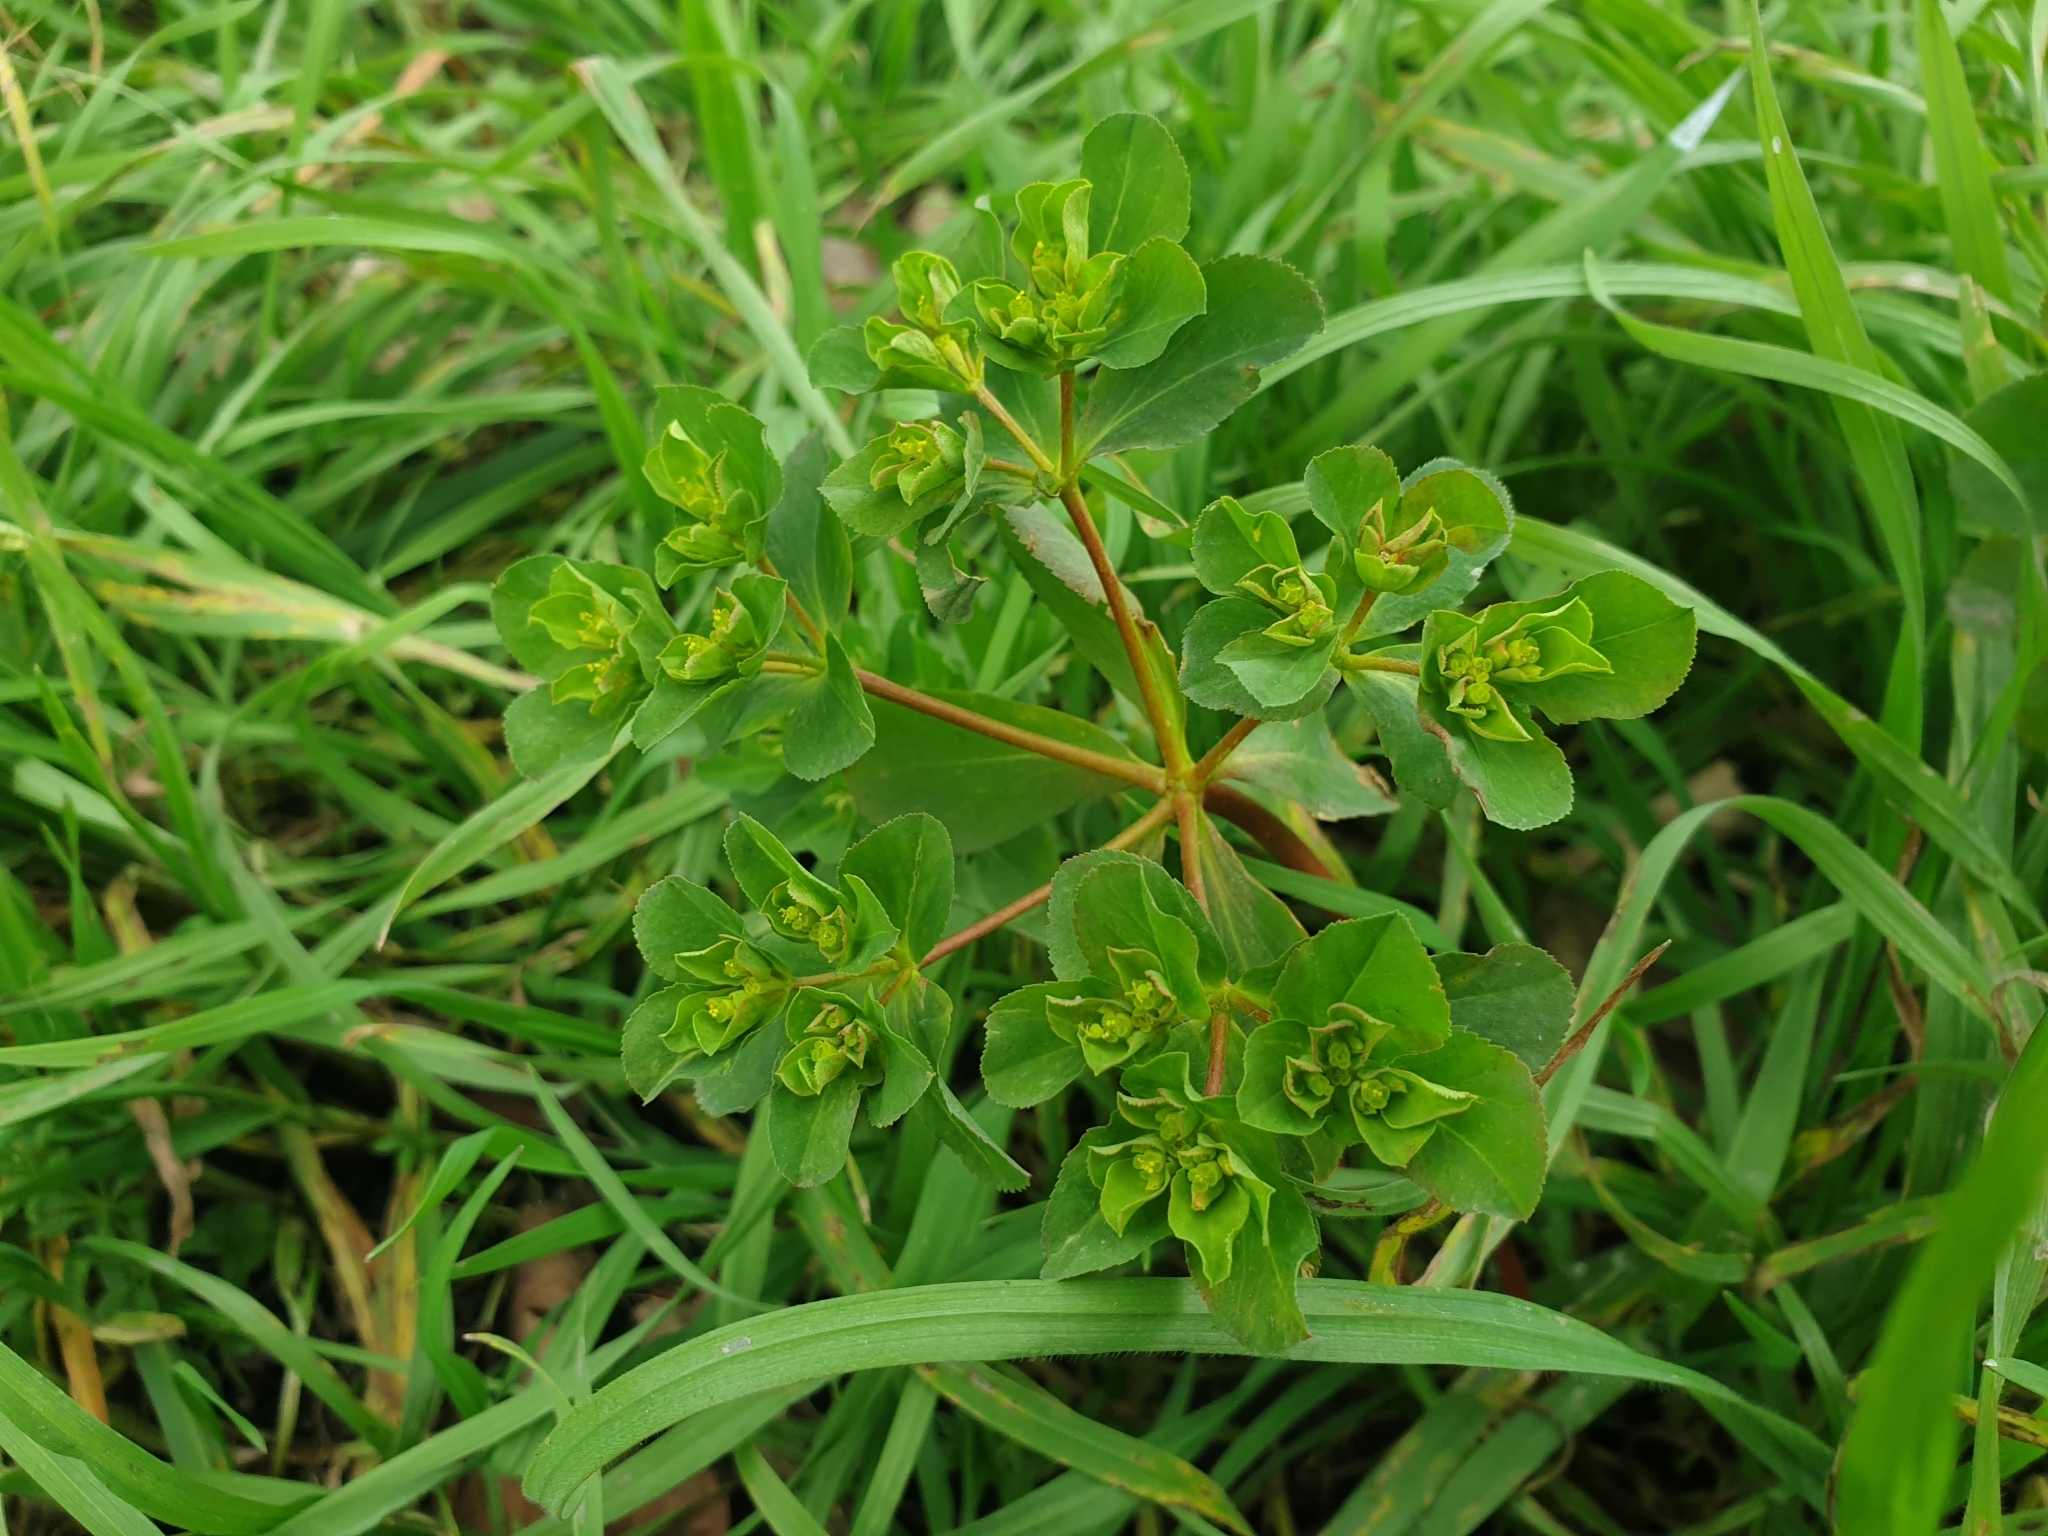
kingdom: Plantae
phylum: Tracheophyta
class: Magnoliopsida
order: Malpighiales
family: Euphorbiaceae
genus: Euphorbia
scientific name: Euphorbia helioscopia
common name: Sun spurge
